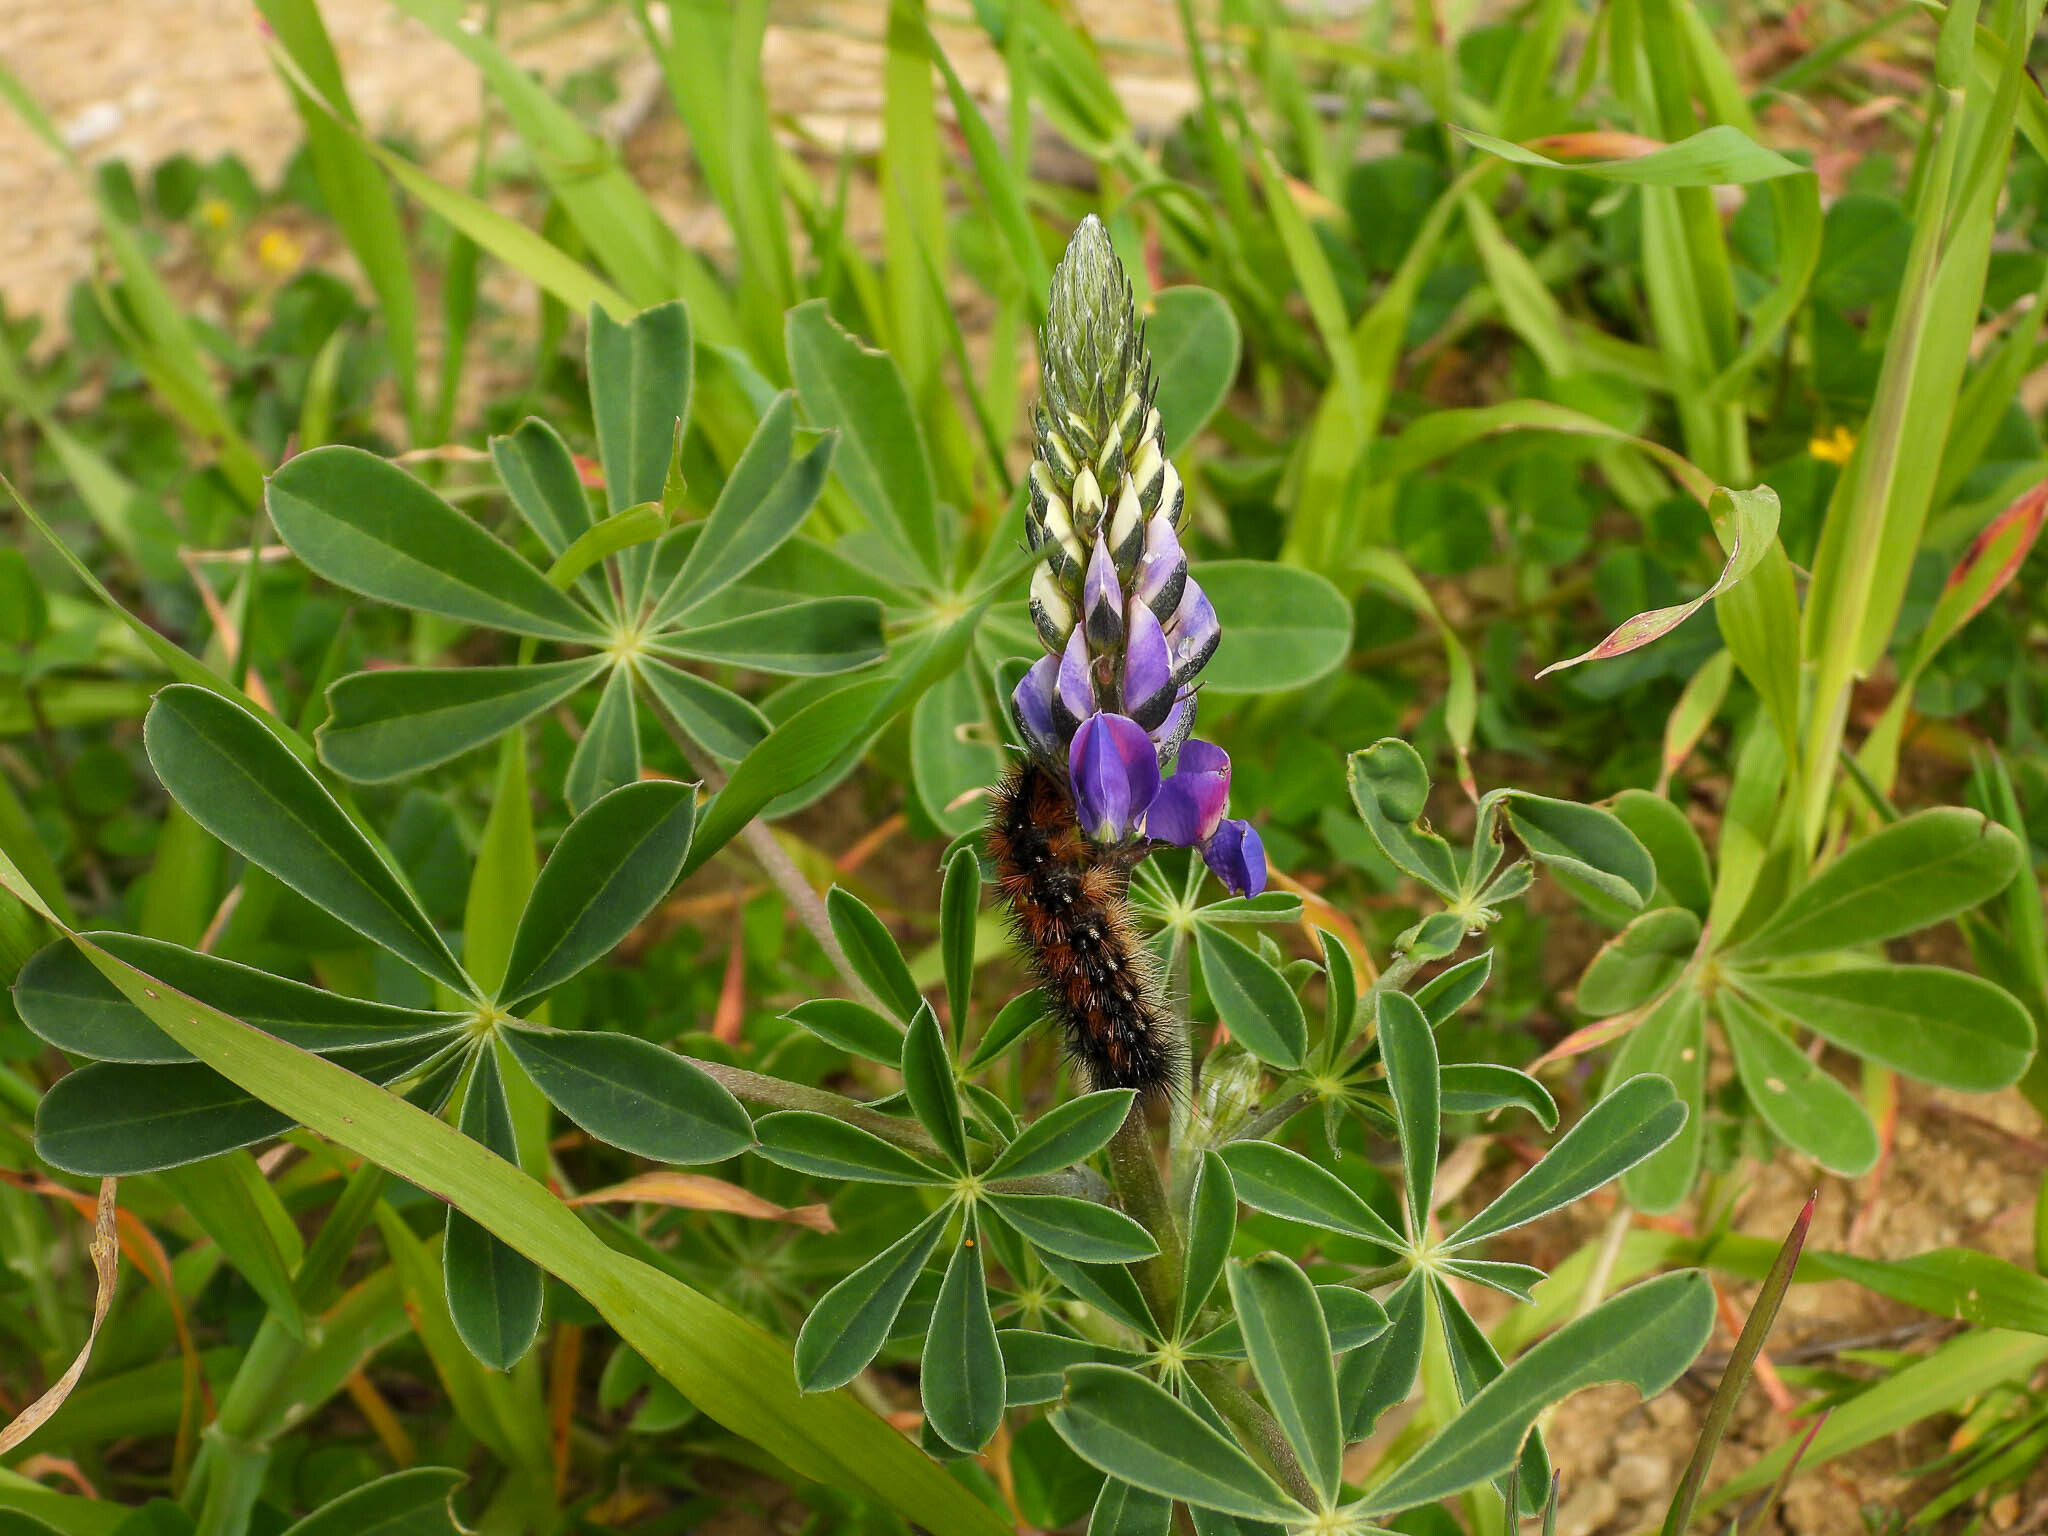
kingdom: Plantae
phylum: Tracheophyta
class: Magnoliopsida
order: Fabales
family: Fabaceae
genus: Lupinus
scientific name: Lupinus succulentus
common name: Arroyo lupine
